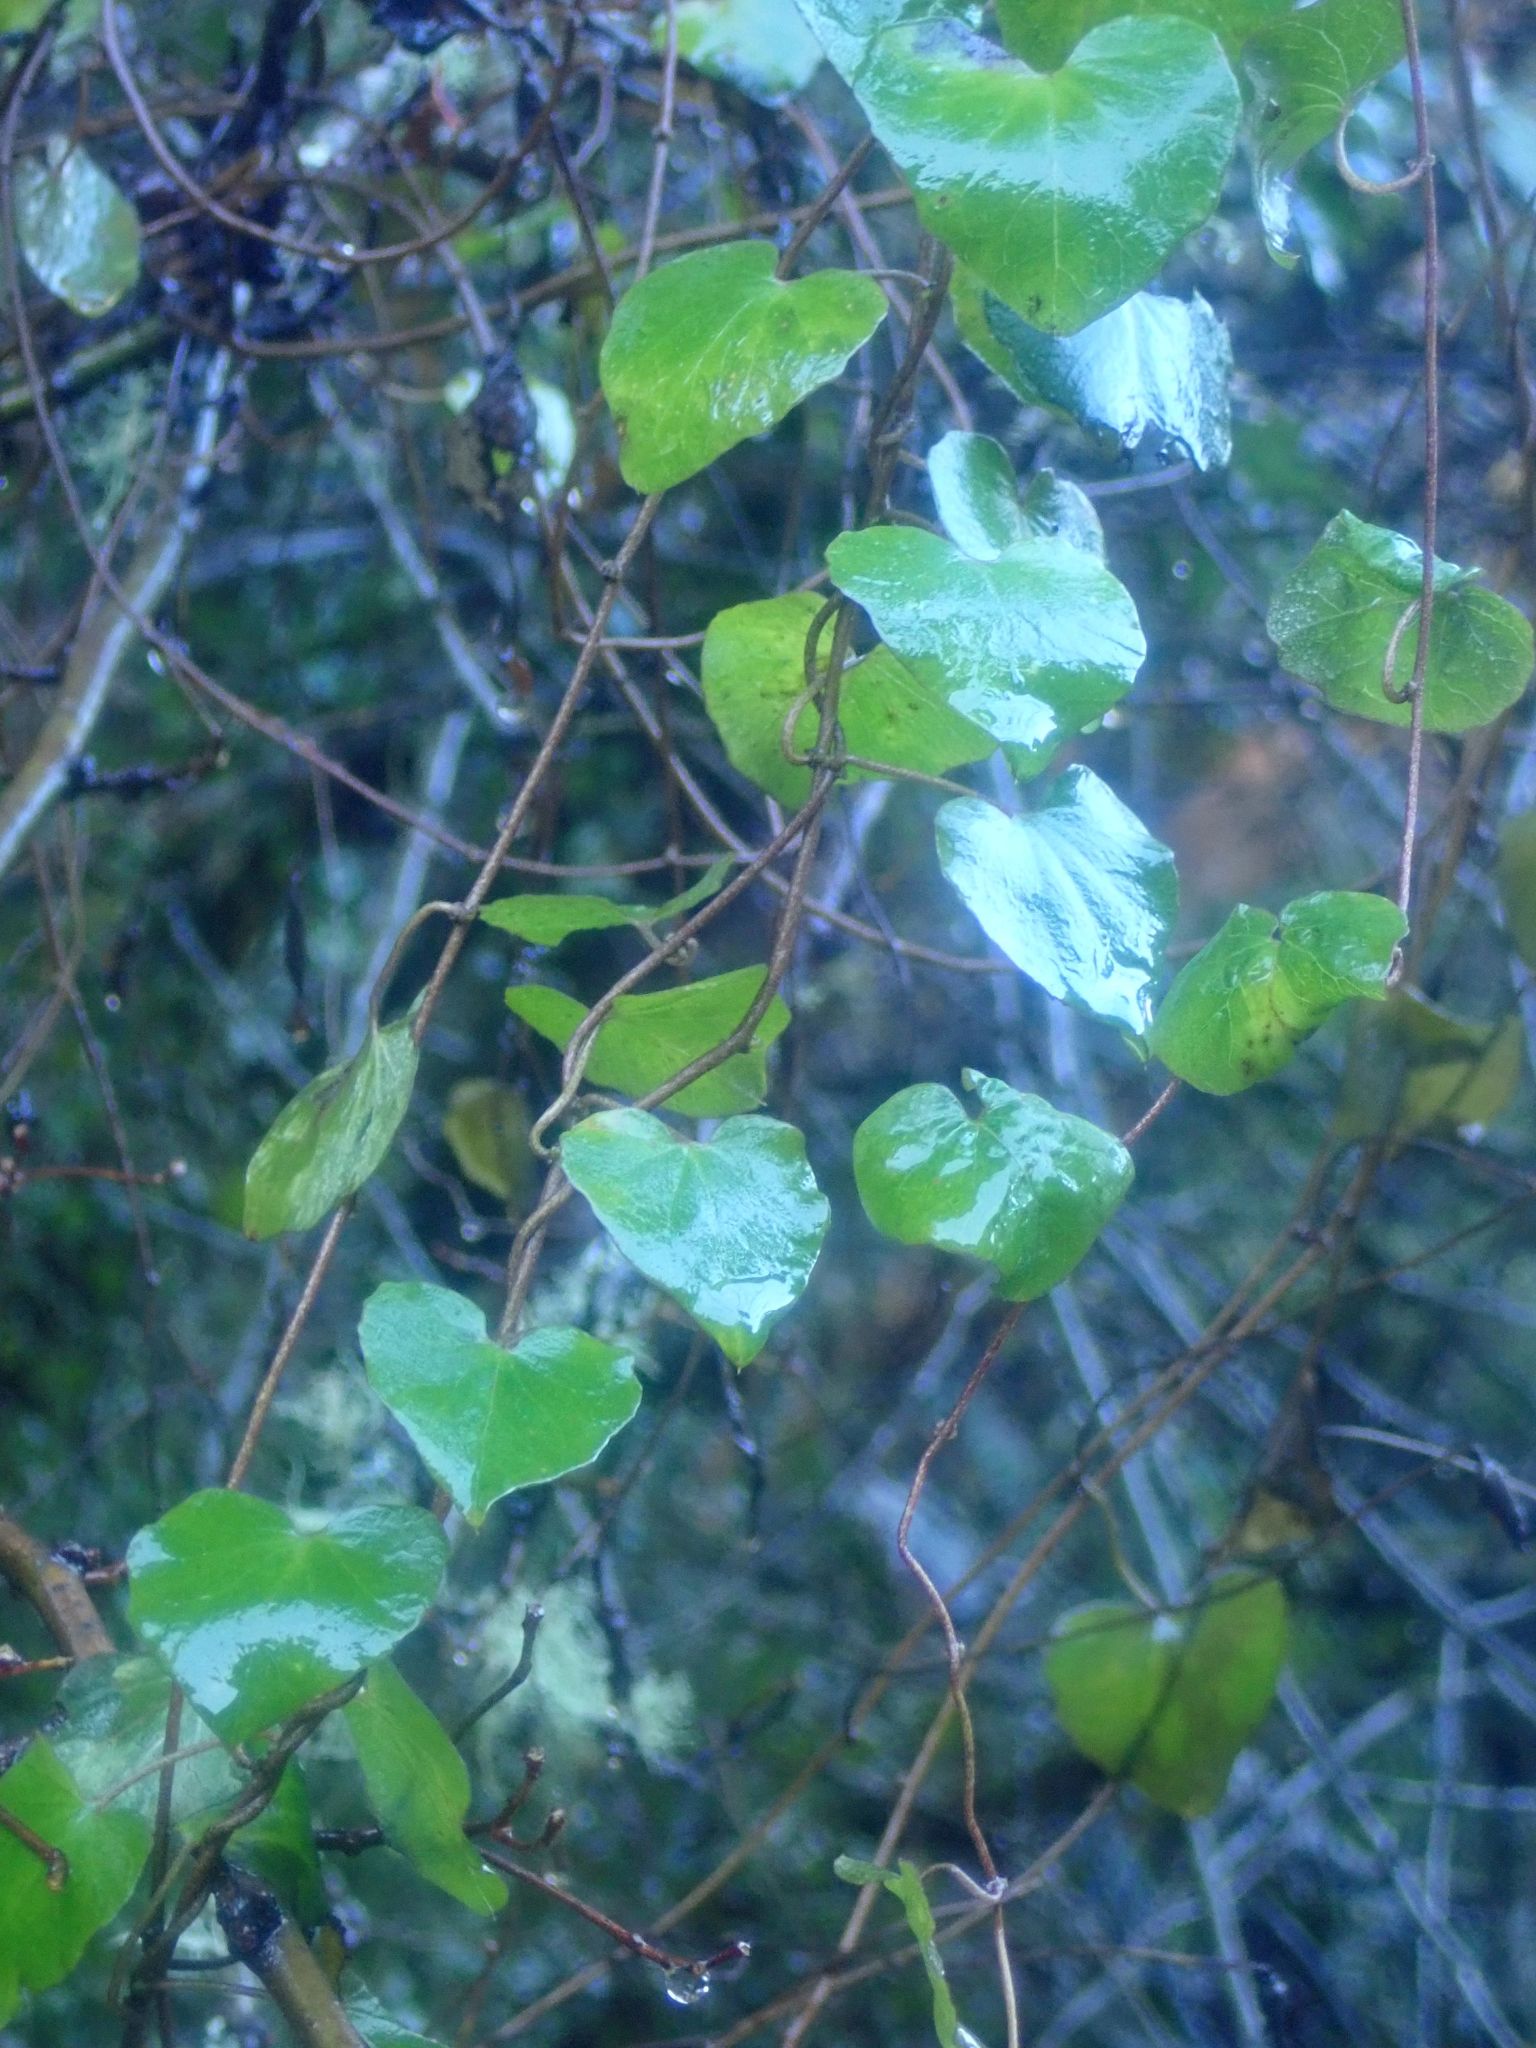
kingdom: Plantae
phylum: Tracheophyta
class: Magnoliopsida
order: Solanales
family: Convolvulaceae
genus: Calystegia
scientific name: Calystegia tuguriorum
